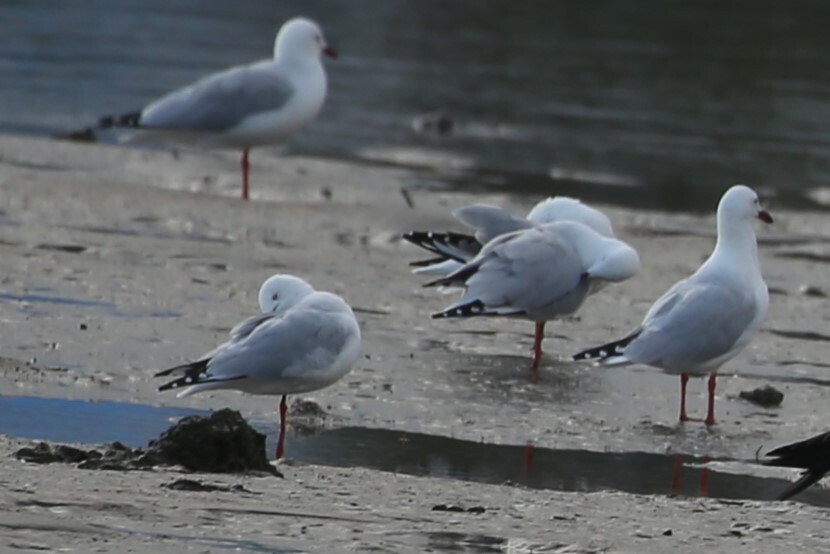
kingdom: Animalia
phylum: Chordata
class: Aves
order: Charadriiformes
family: Laridae
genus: Chroicocephalus
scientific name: Chroicocephalus novaehollandiae
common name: Silver gull
